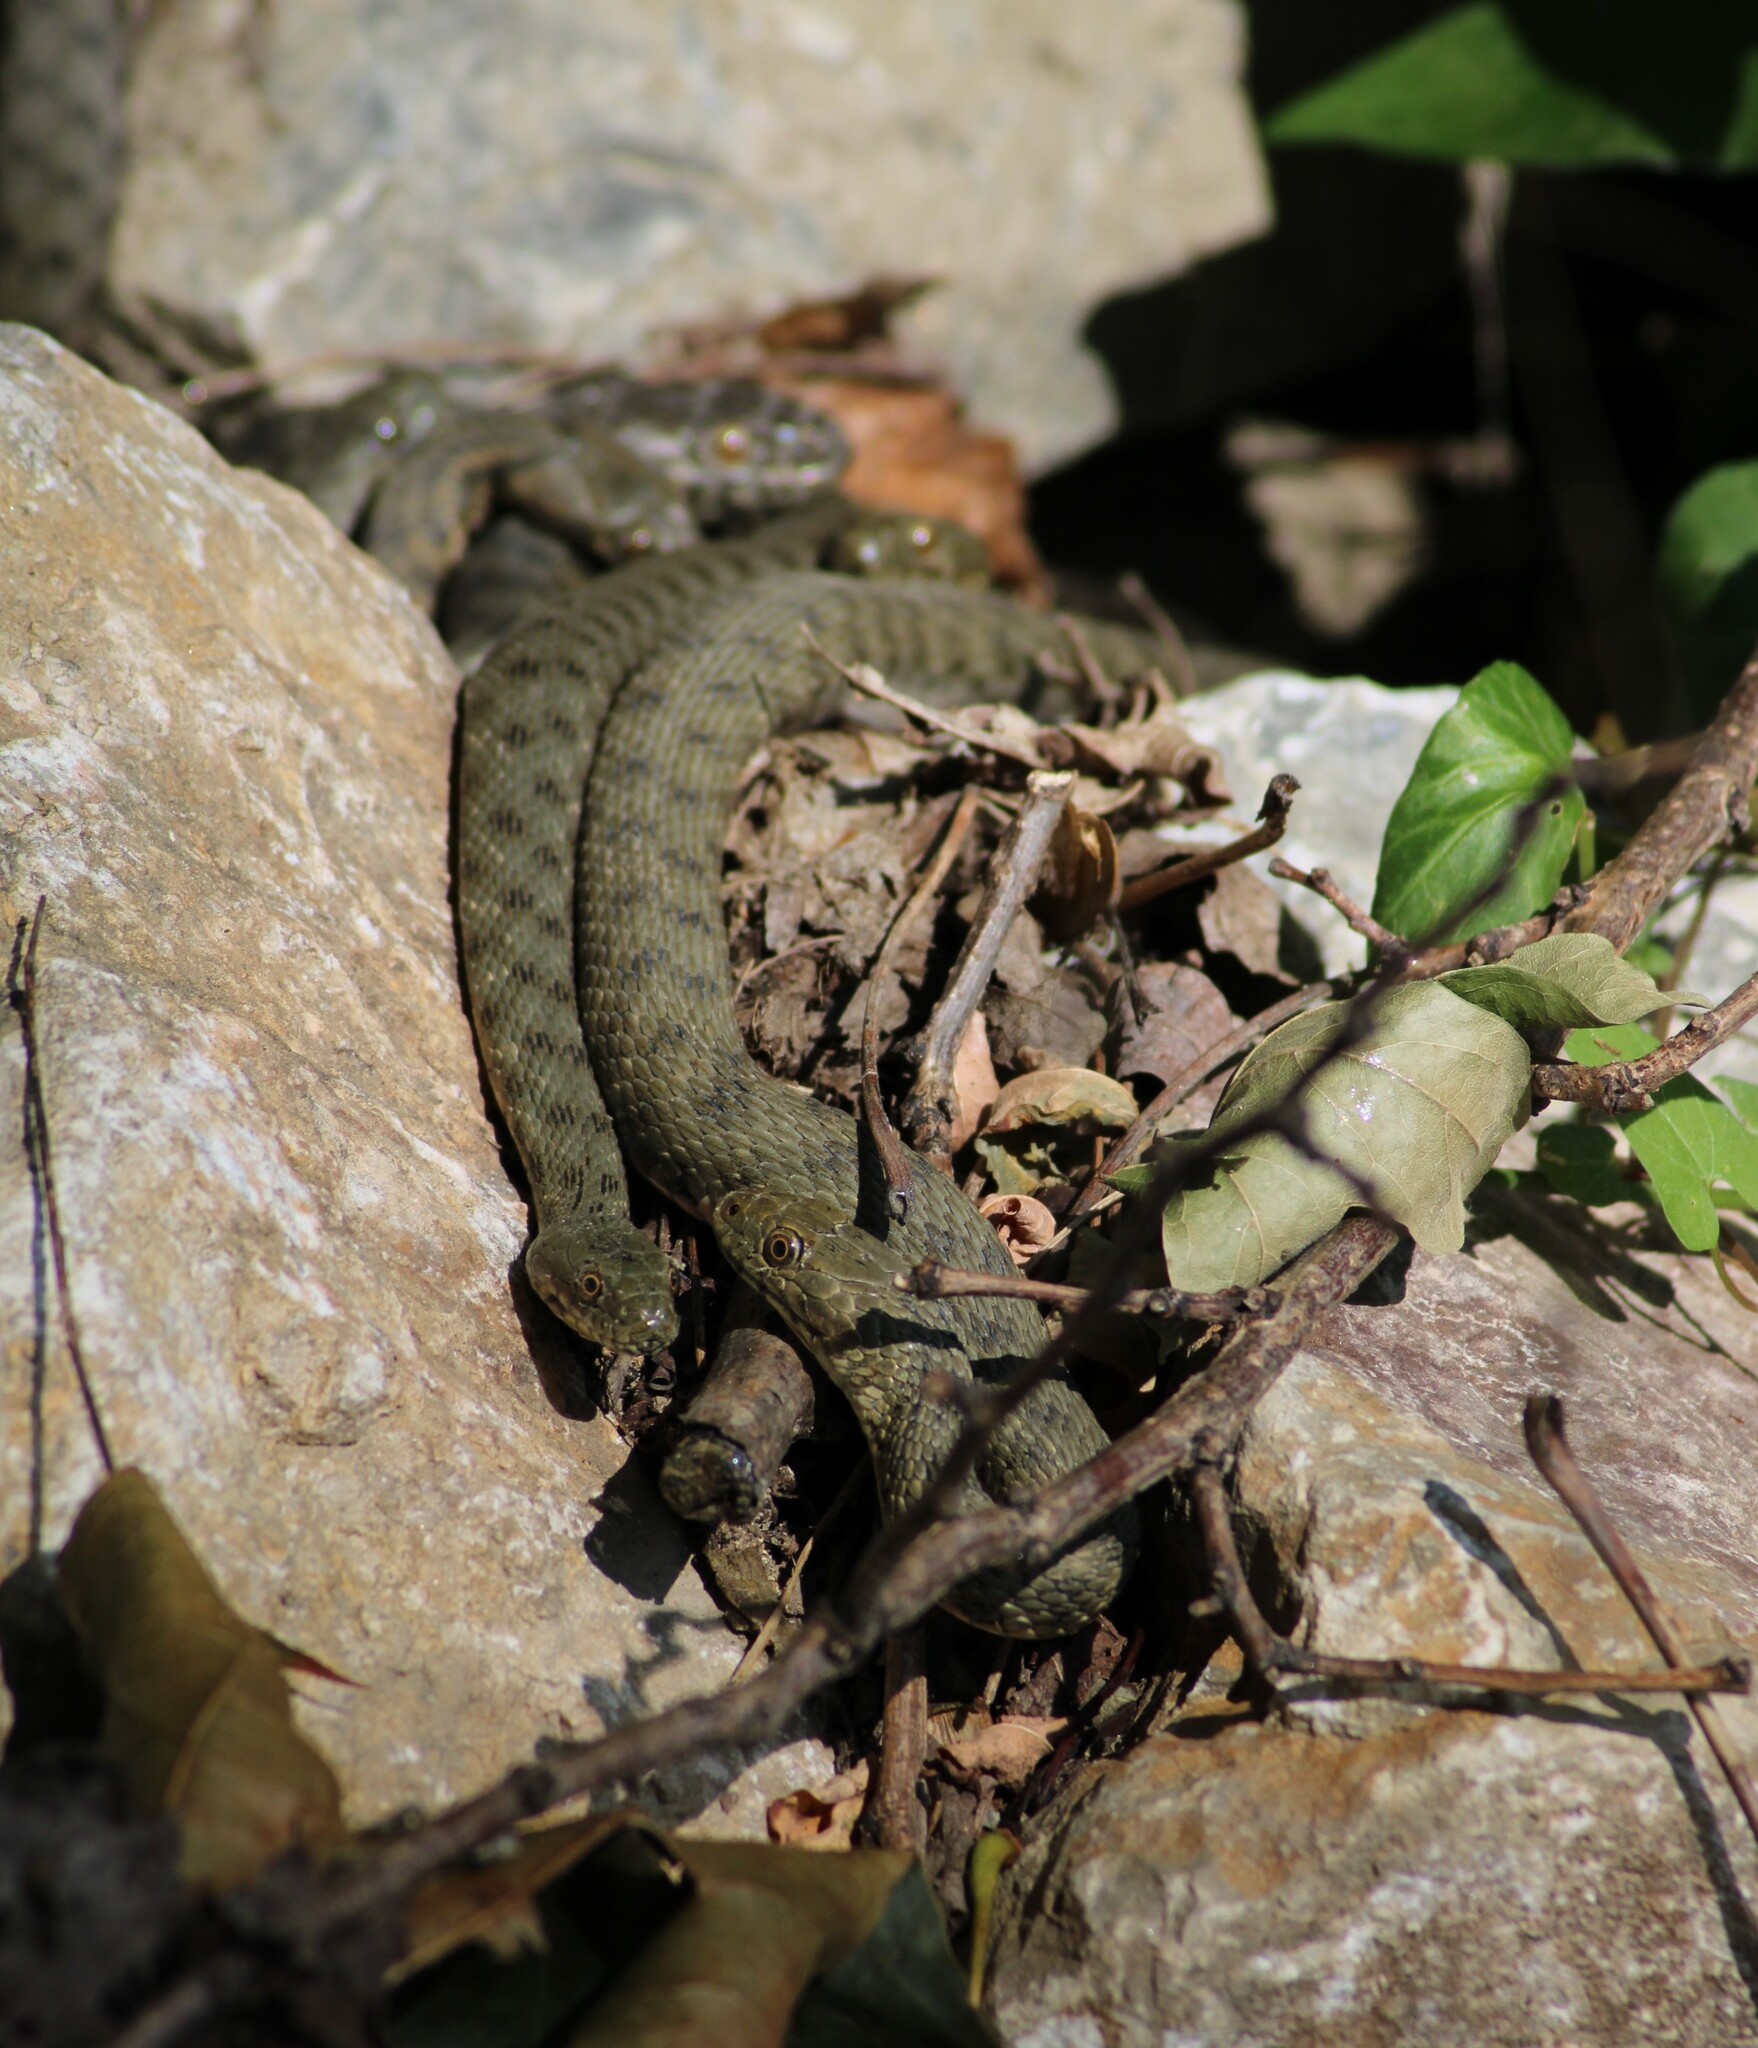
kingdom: Animalia
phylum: Chordata
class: Squamata
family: Colubridae
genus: Natrix
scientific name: Natrix tessellata
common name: Dice snake
